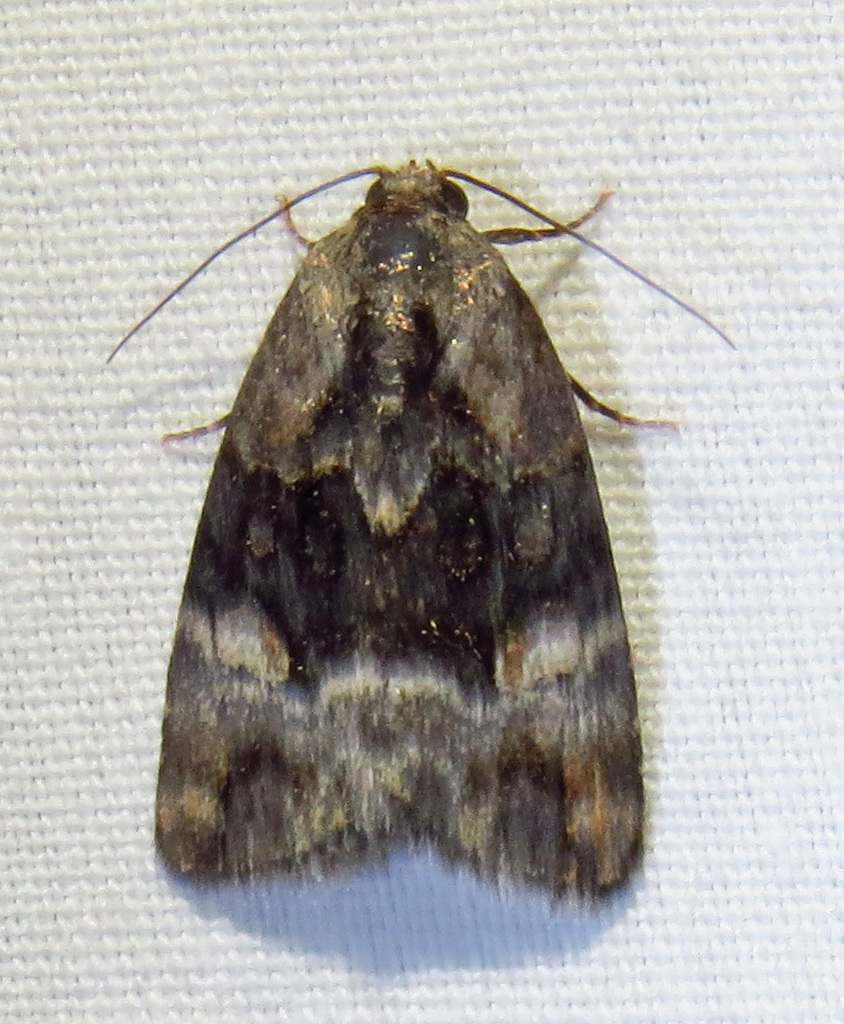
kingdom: Animalia
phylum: Arthropoda
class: Insecta
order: Lepidoptera
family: Noctuidae
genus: Elaphria
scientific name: Elaphria georgei
